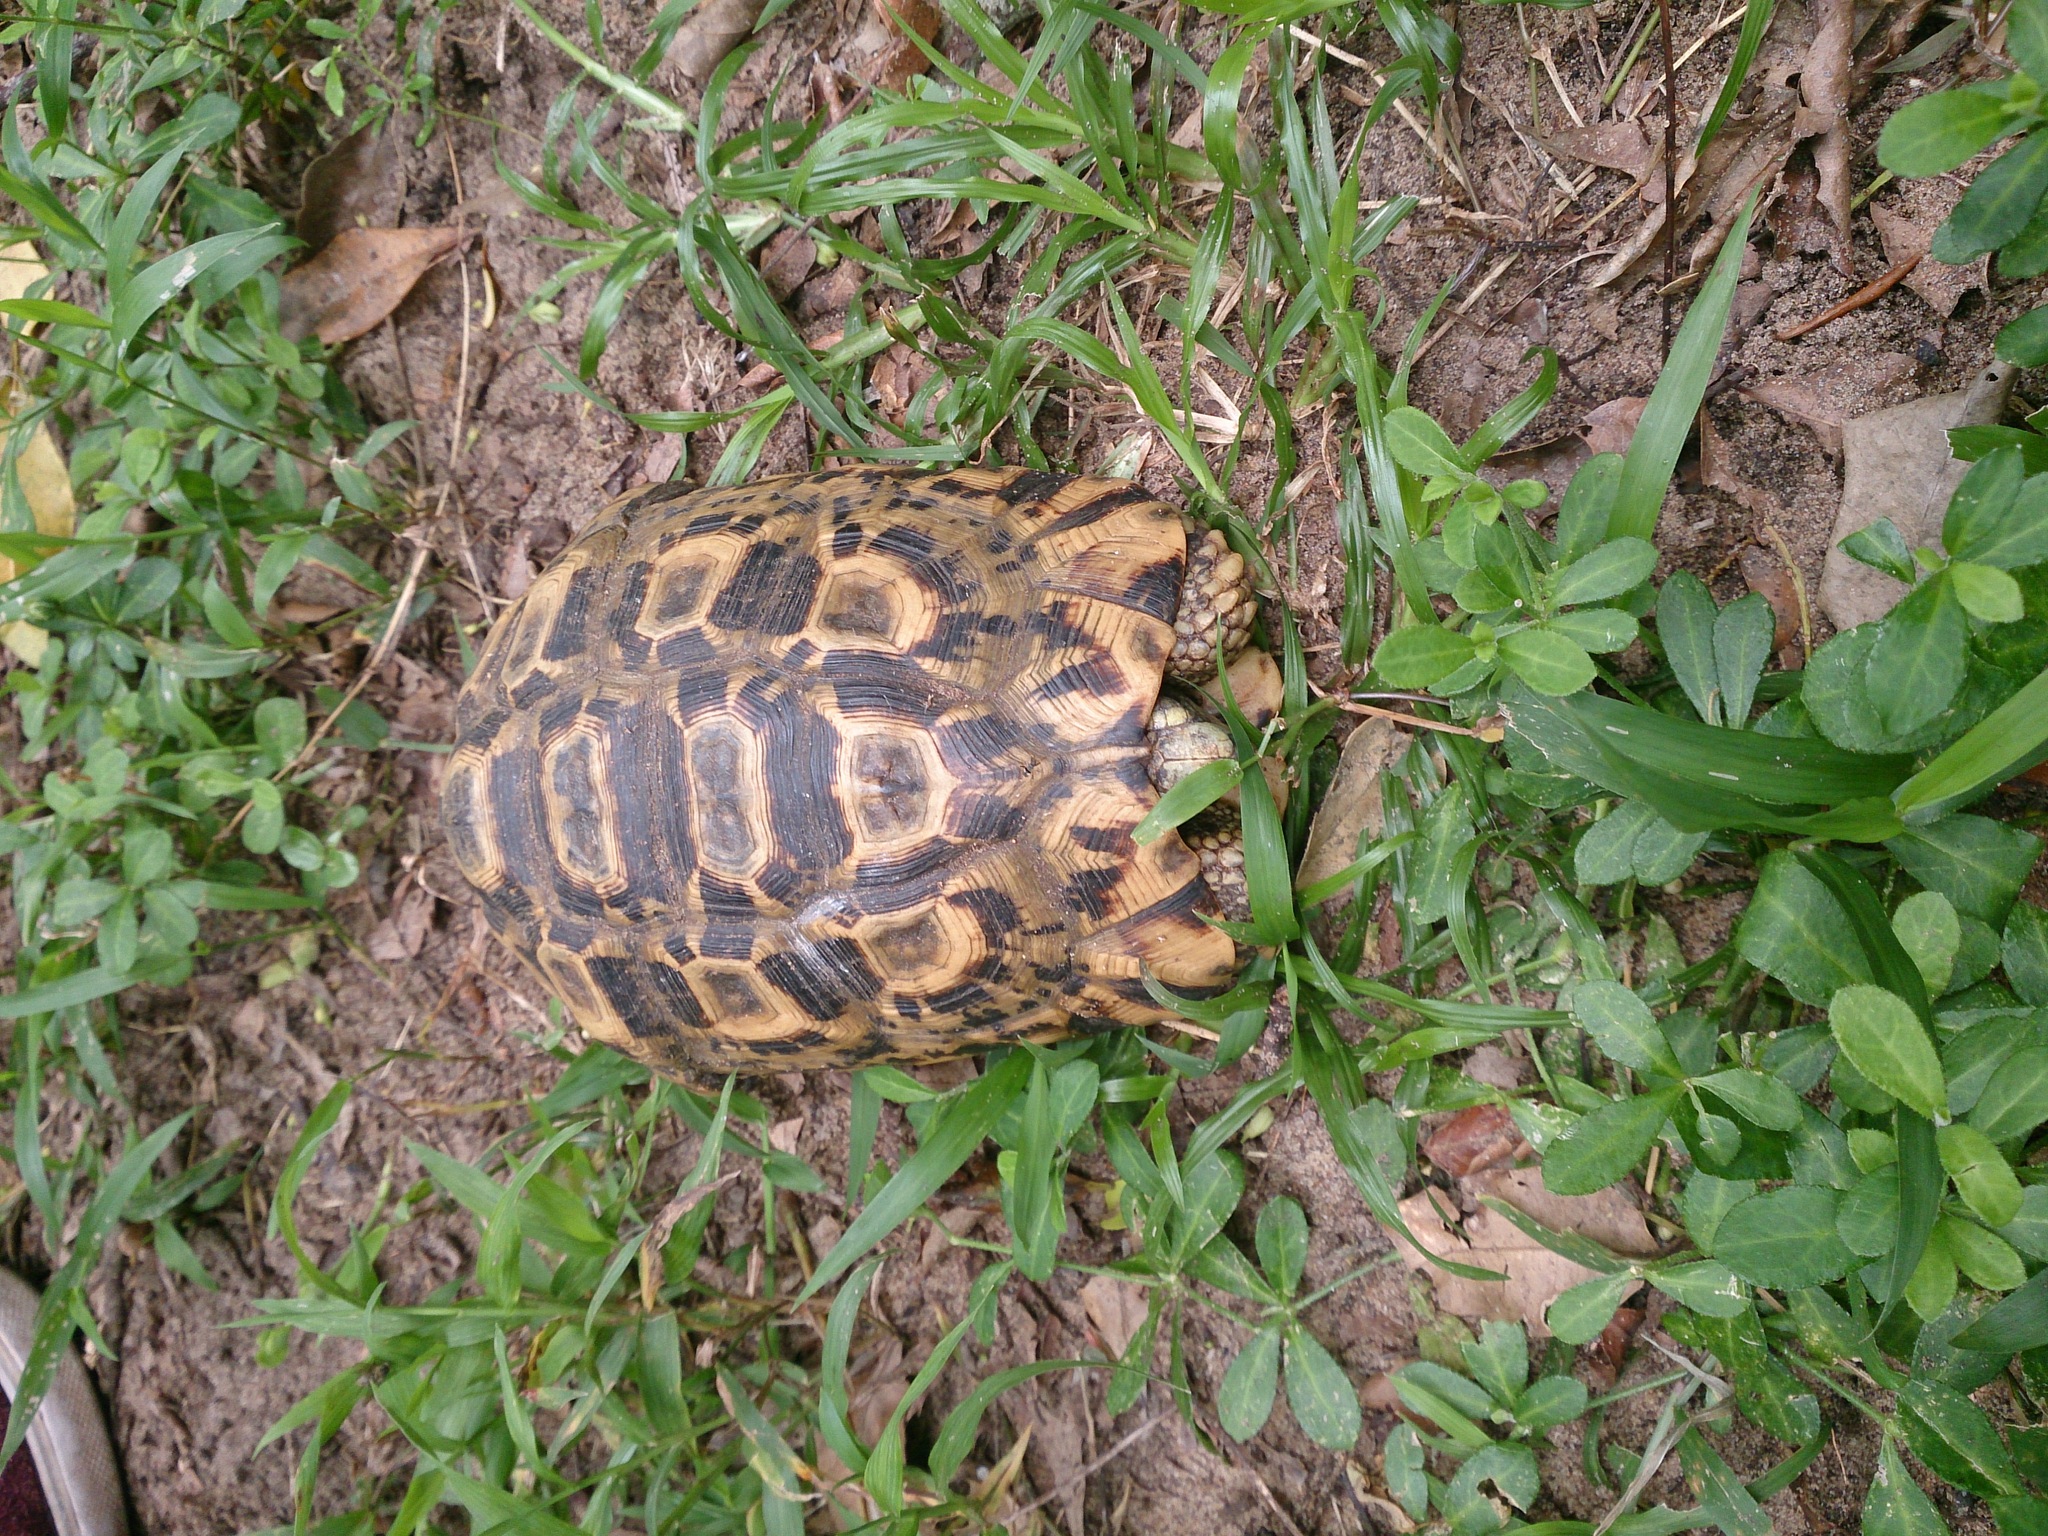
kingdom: Animalia
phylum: Chordata
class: Testudines
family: Testudinidae
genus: Kinixys
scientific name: Kinixys zombensis
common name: Southeastern hinge-back tortoise
